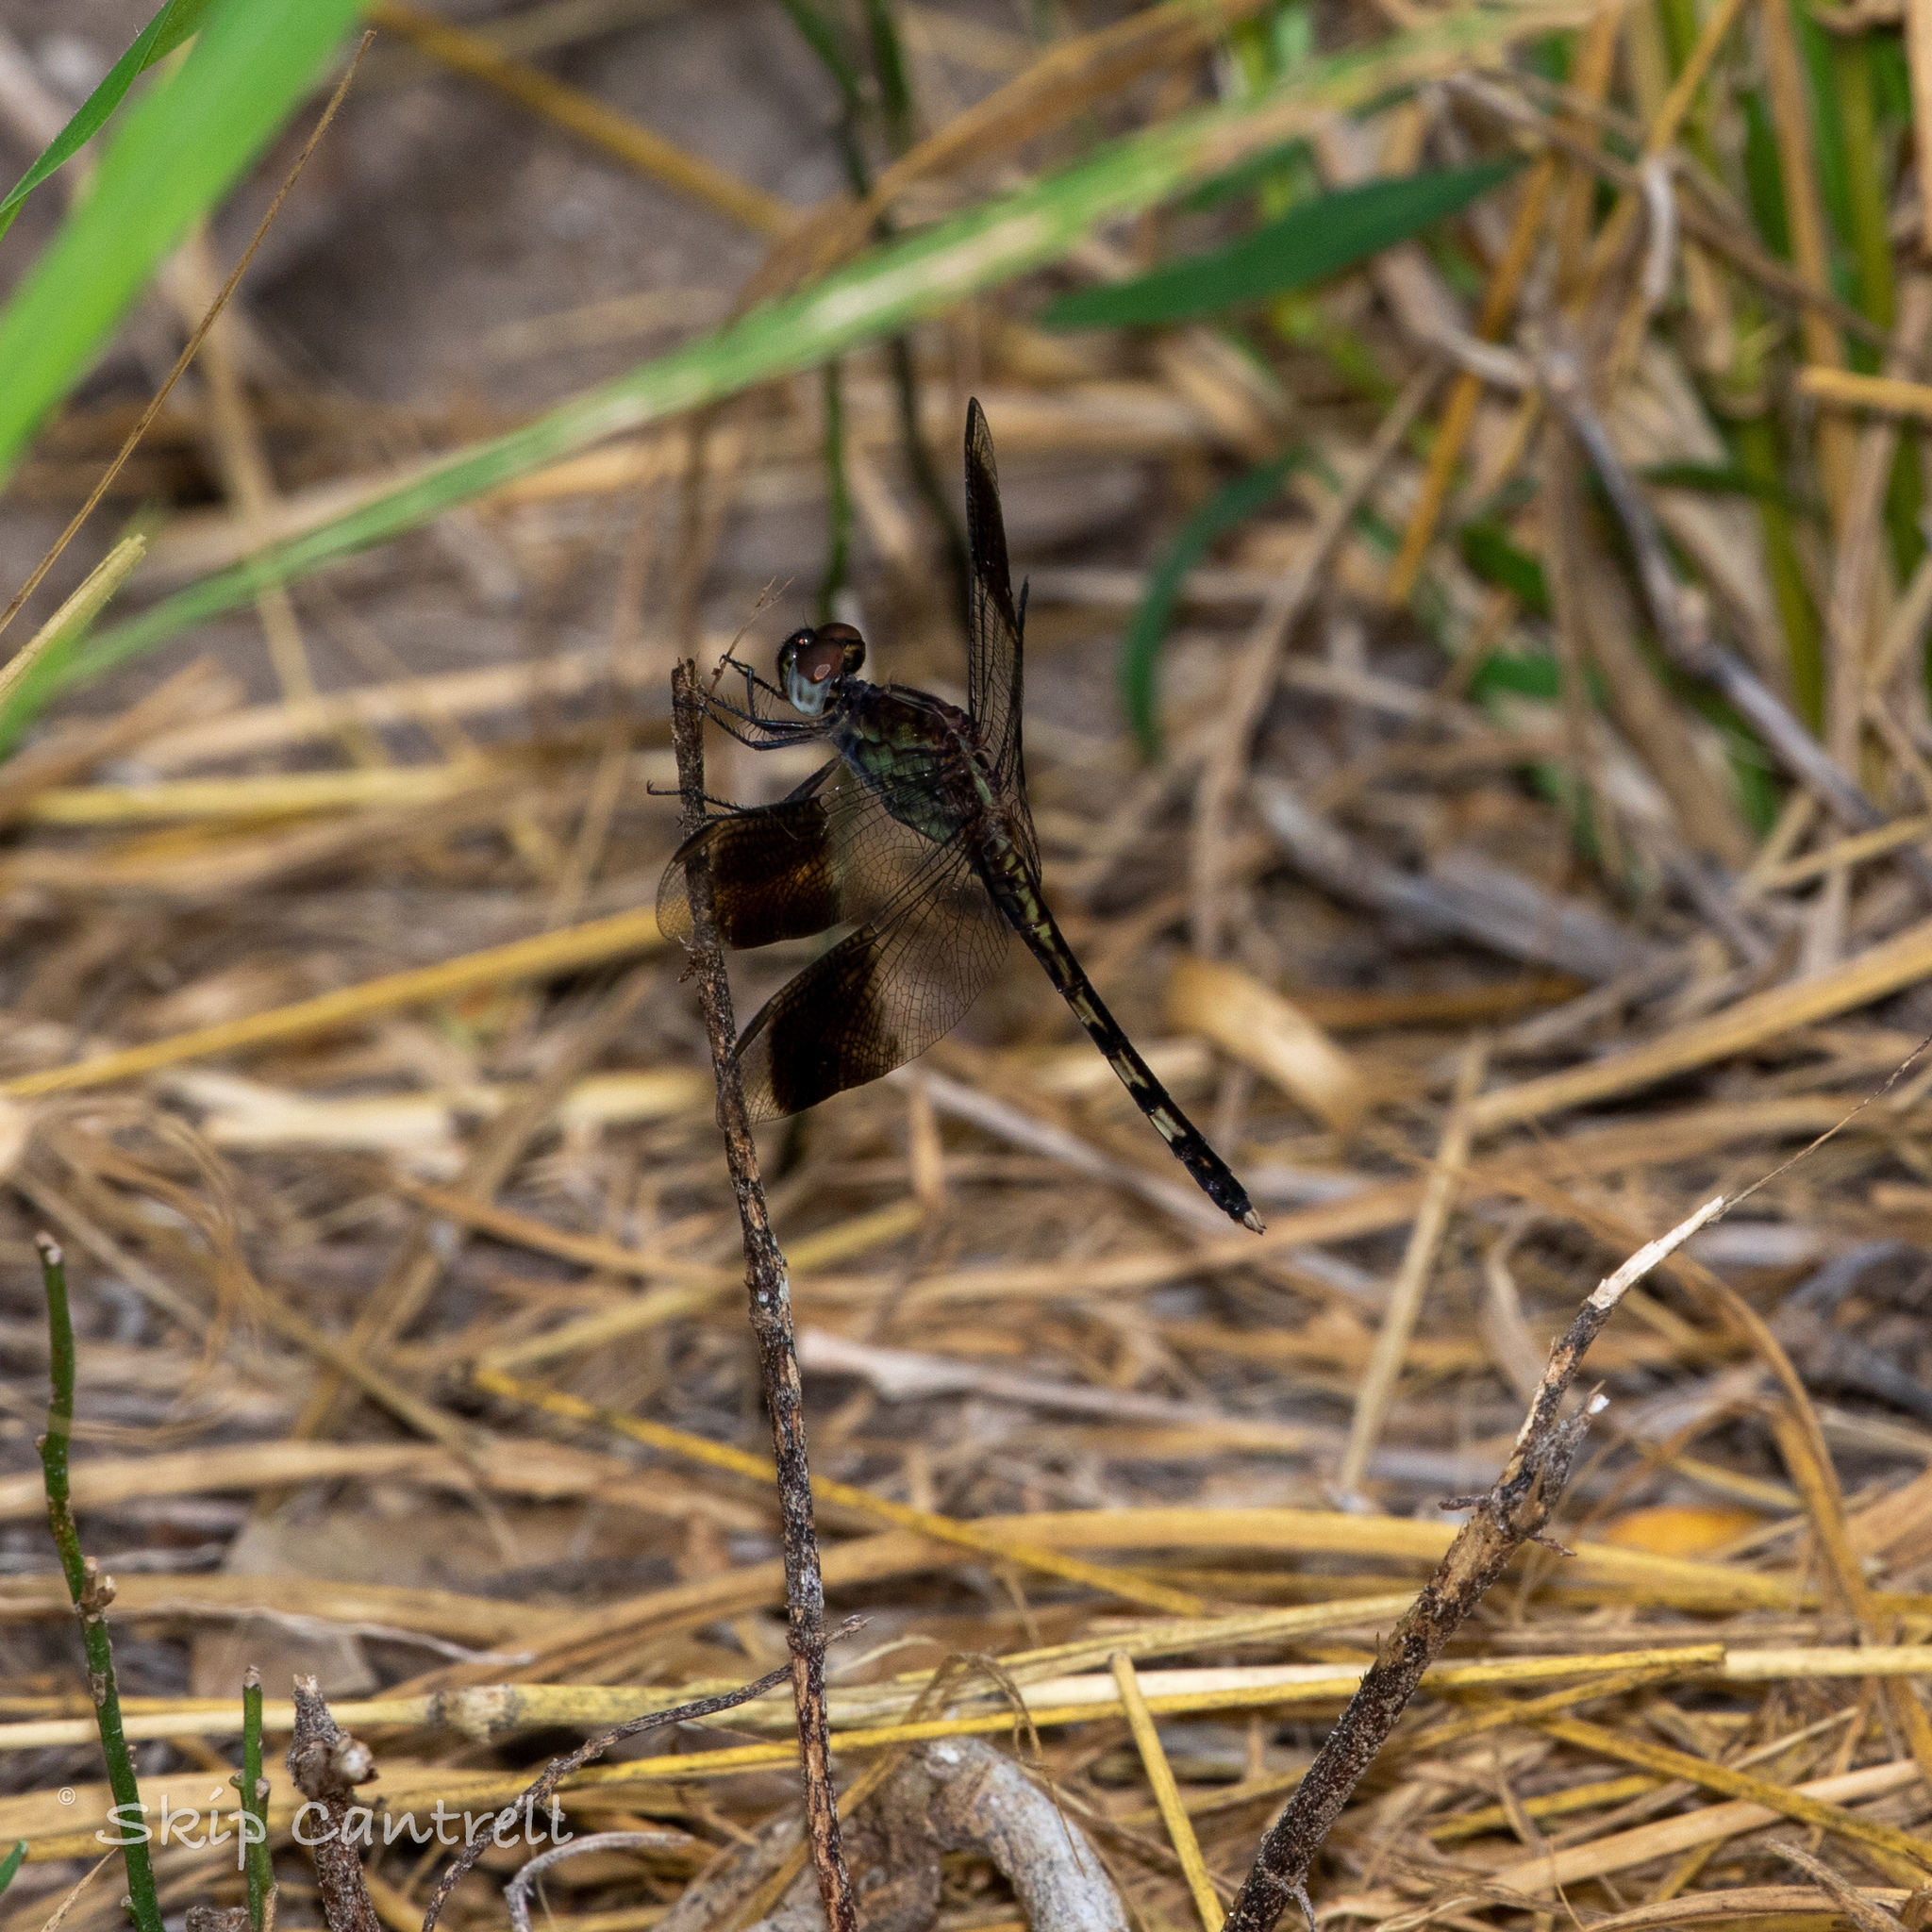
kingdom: Animalia
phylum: Arthropoda
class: Insecta
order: Odonata
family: Libellulidae
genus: Erythrodiplax
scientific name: Erythrodiplax umbrata
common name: Band-winged dragonlet
